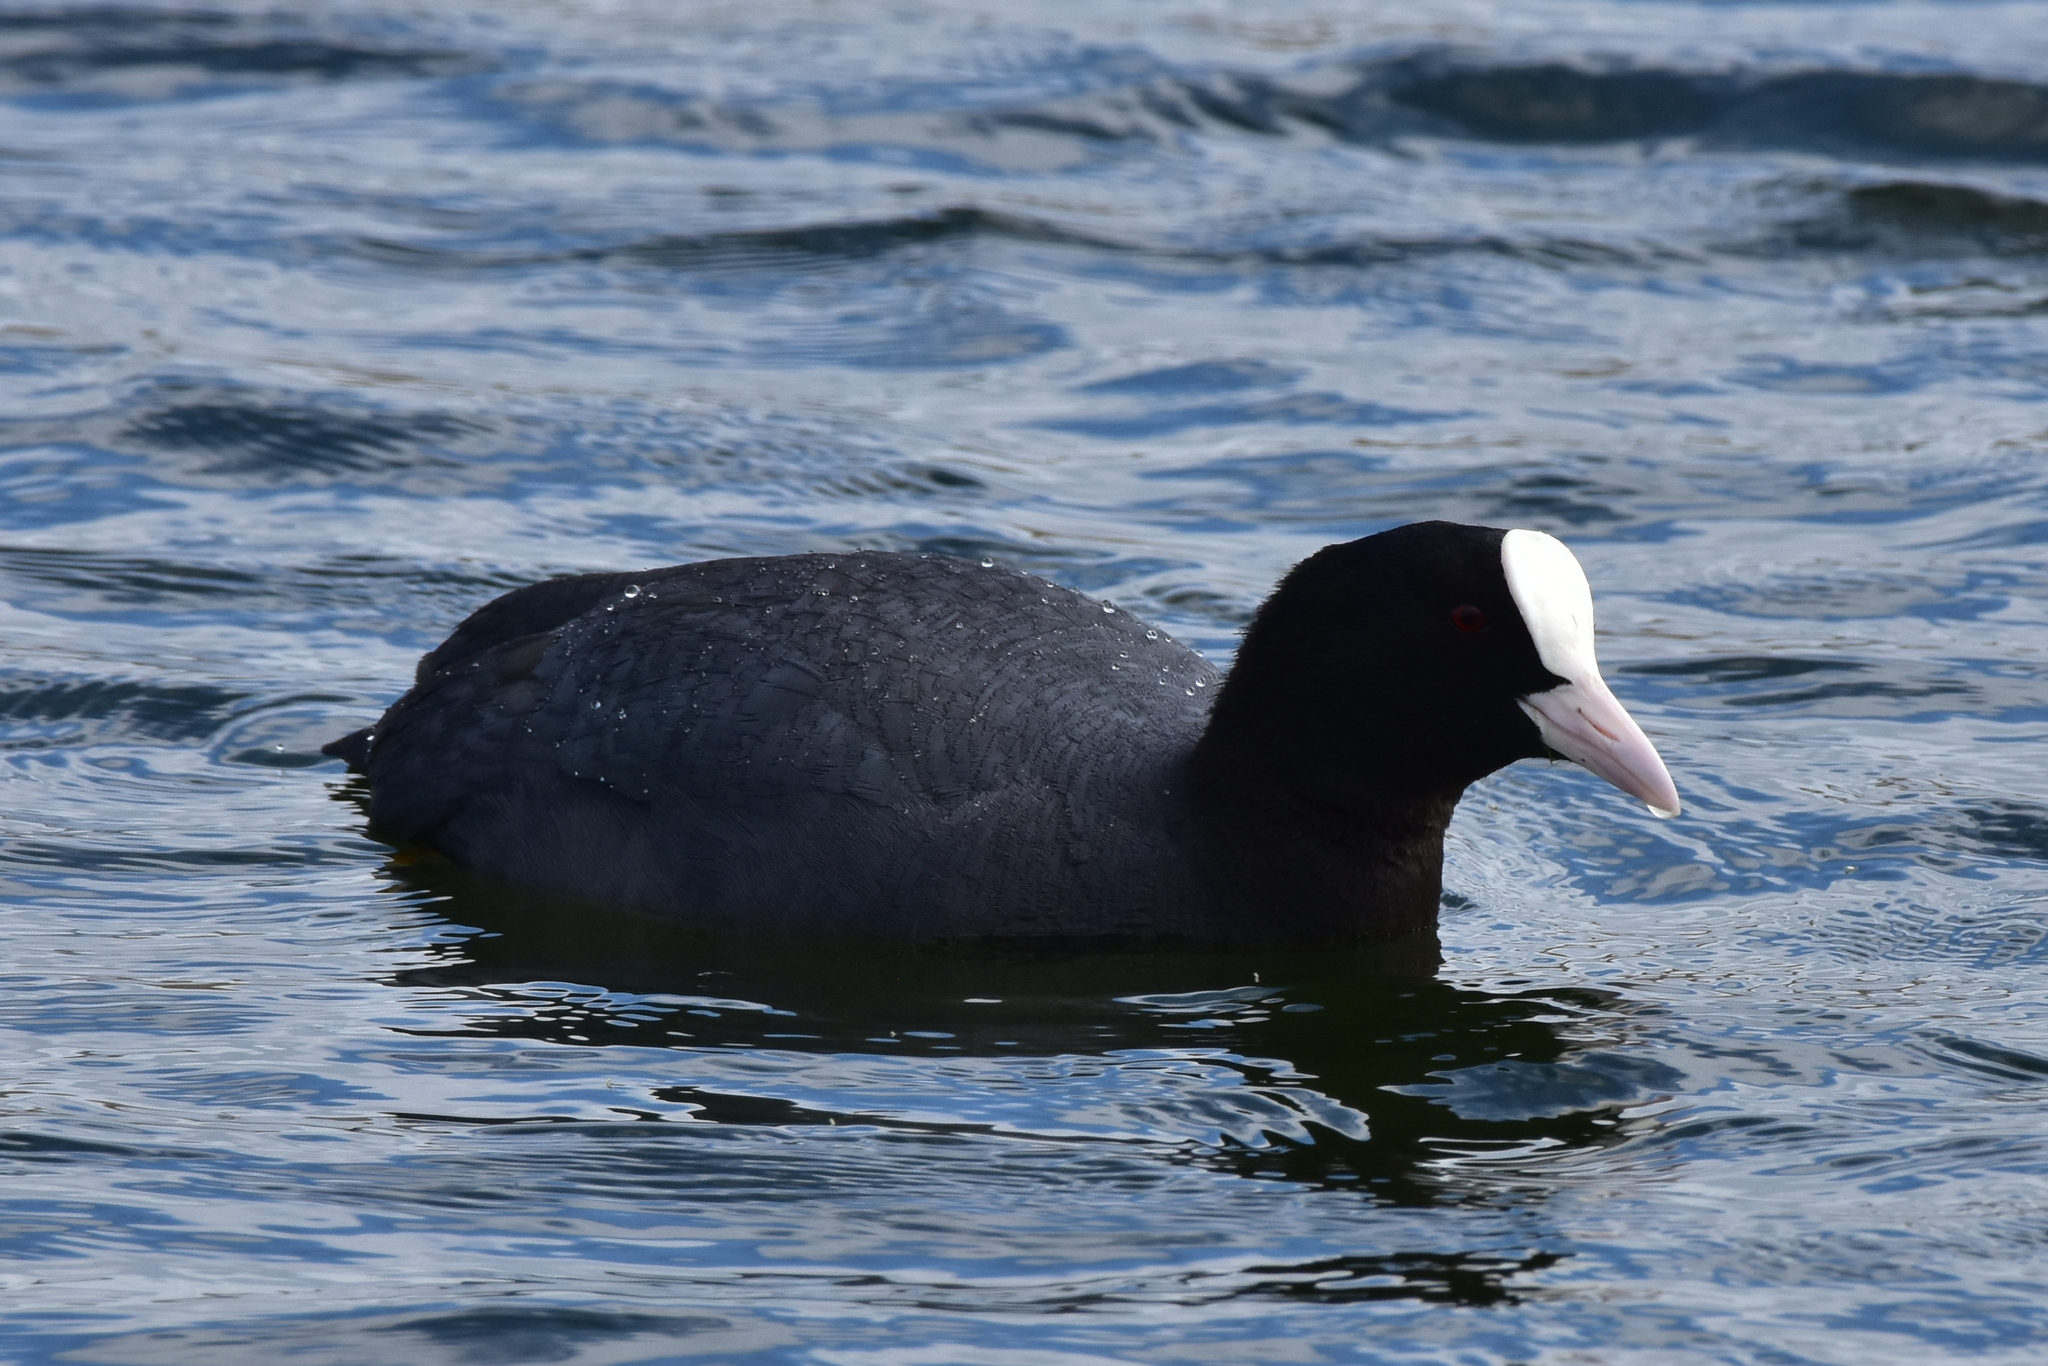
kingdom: Animalia
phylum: Chordata
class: Aves
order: Gruiformes
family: Rallidae
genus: Fulica
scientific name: Fulica atra
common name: Eurasian coot
